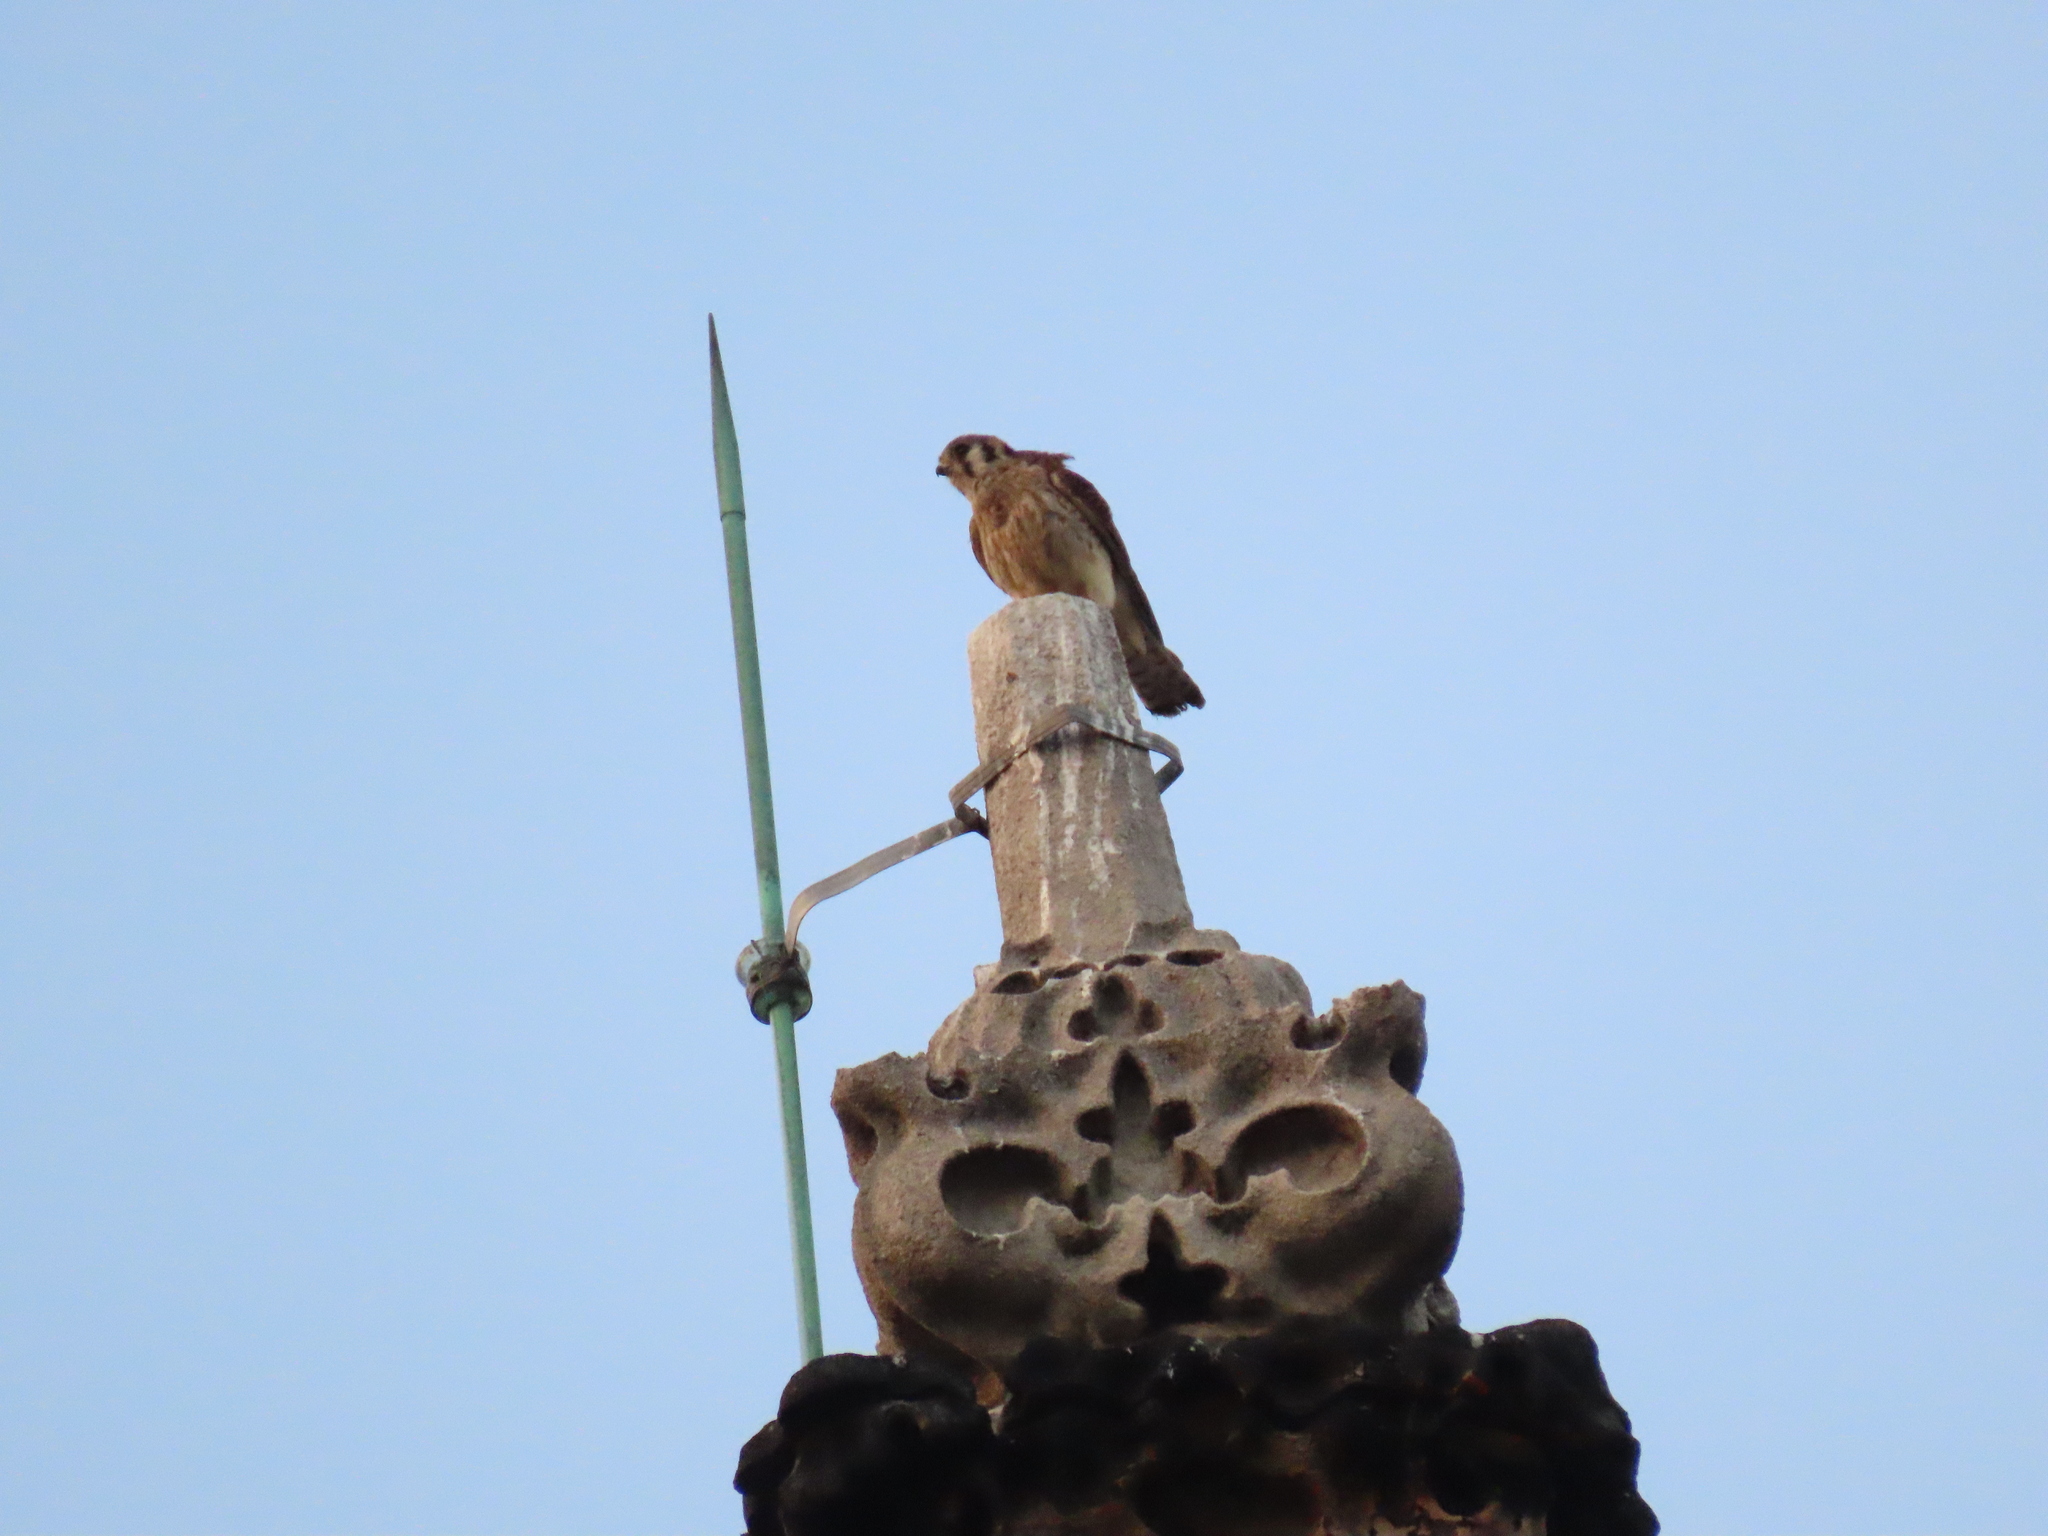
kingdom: Animalia
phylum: Chordata
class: Aves
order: Falconiformes
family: Falconidae
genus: Falco
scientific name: Falco sparverius
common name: American kestrel
